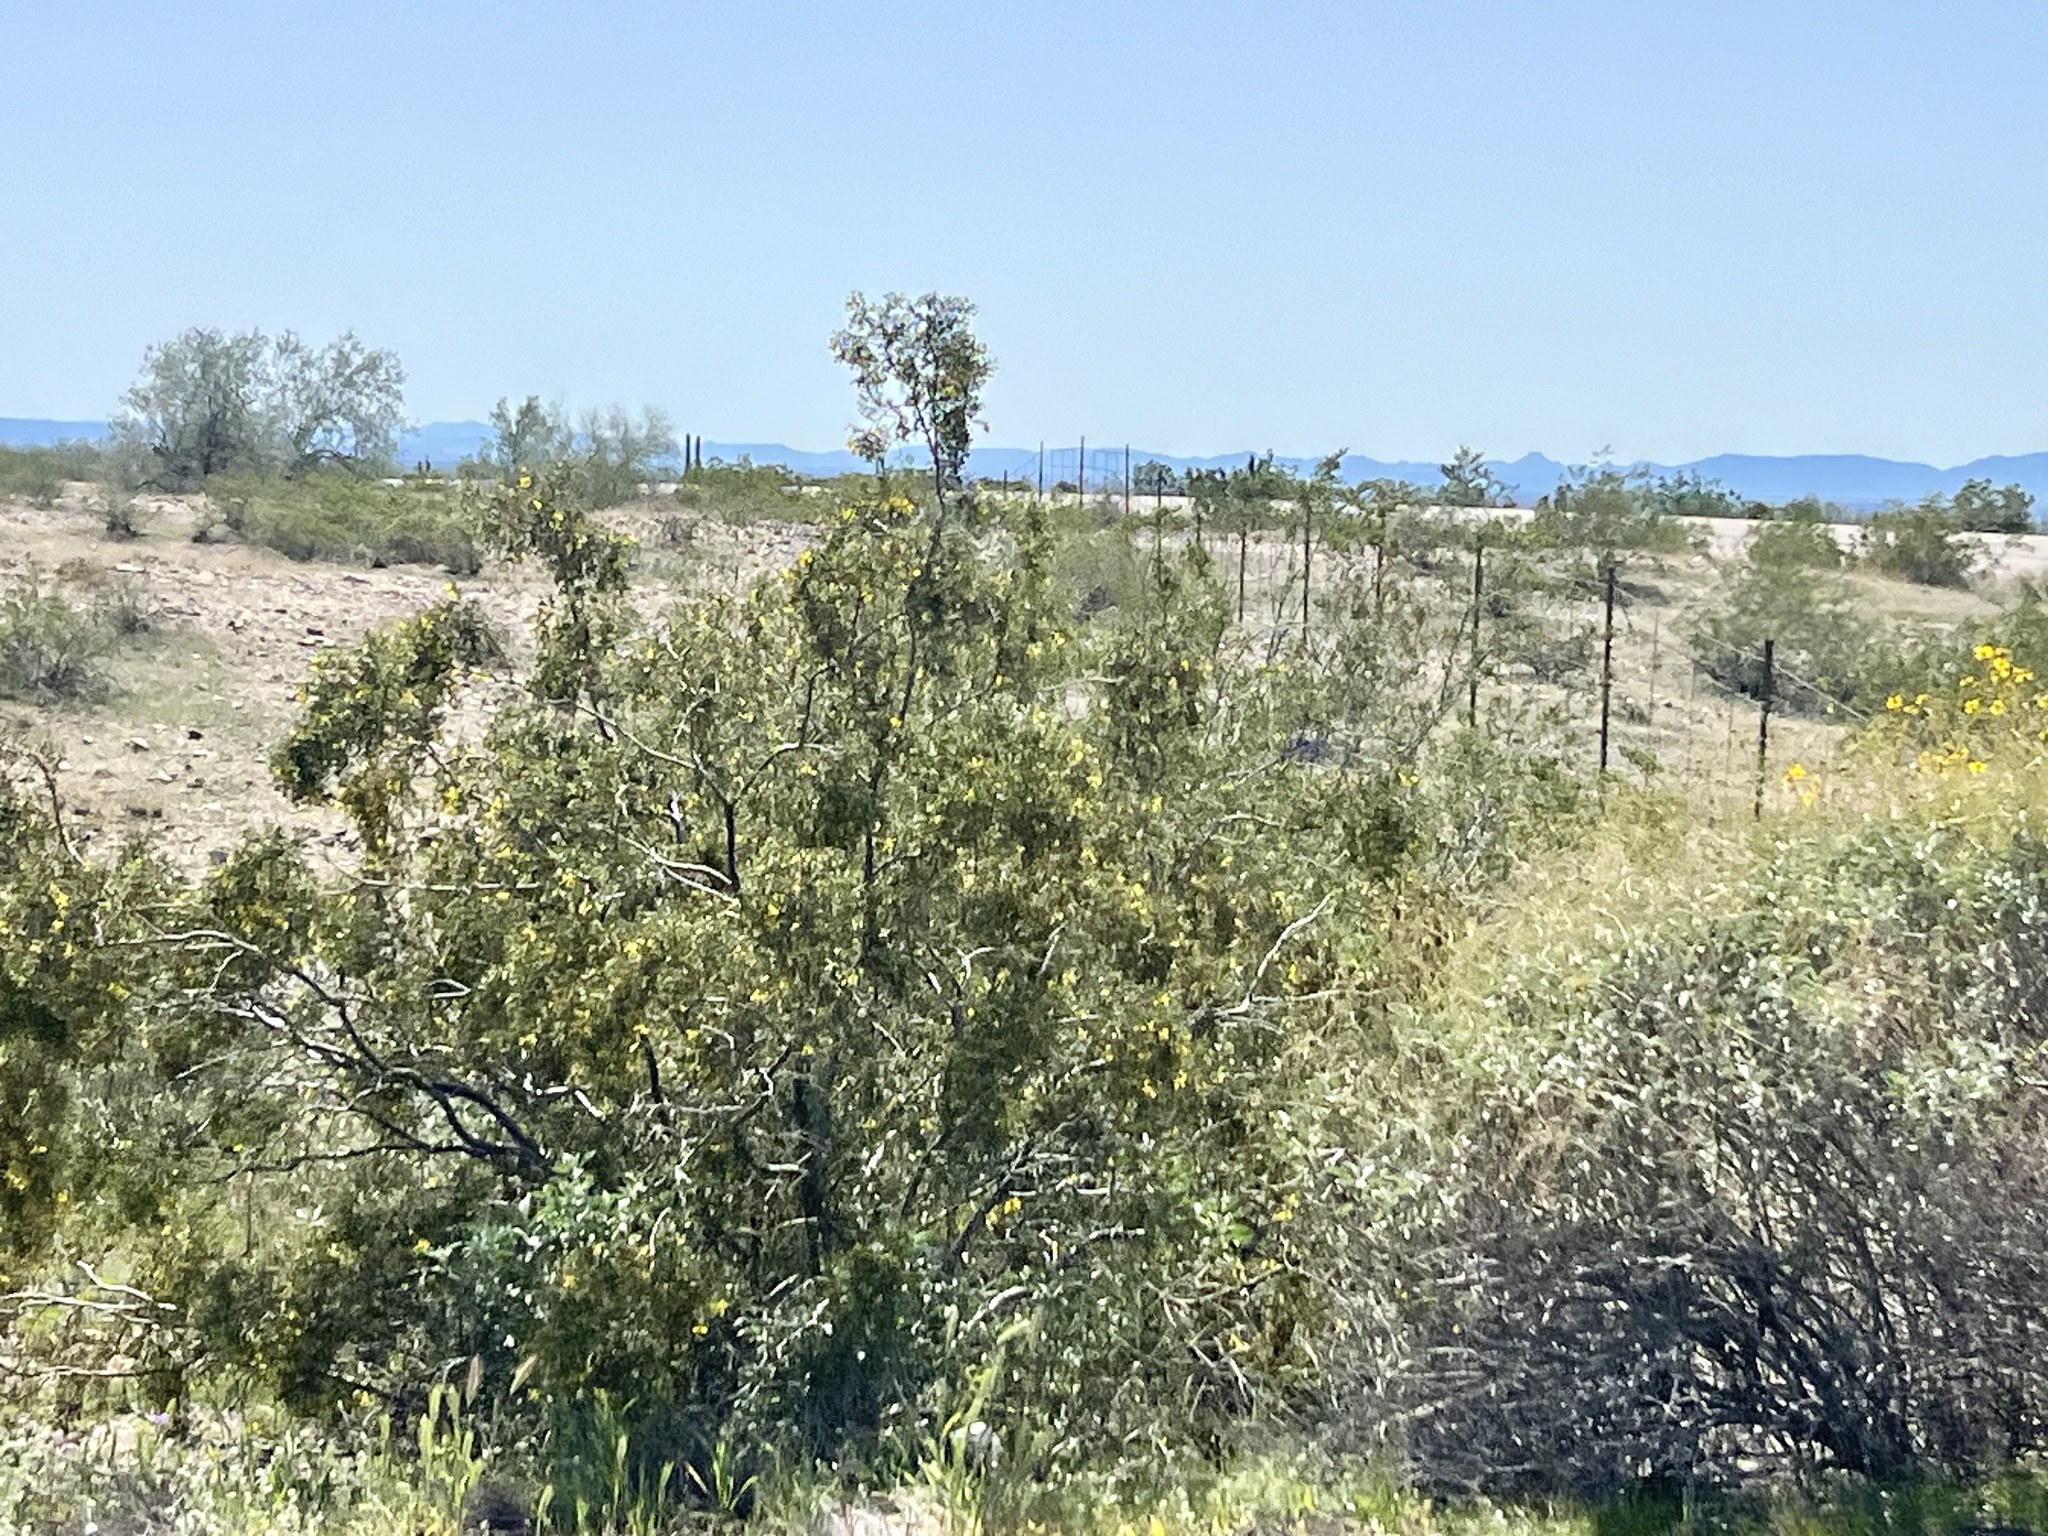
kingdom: Plantae
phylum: Tracheophyta
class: Magnoliopsida
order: Zygophyllales
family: Zygophyllaceae
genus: Larrea
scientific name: Larrea tridentata
